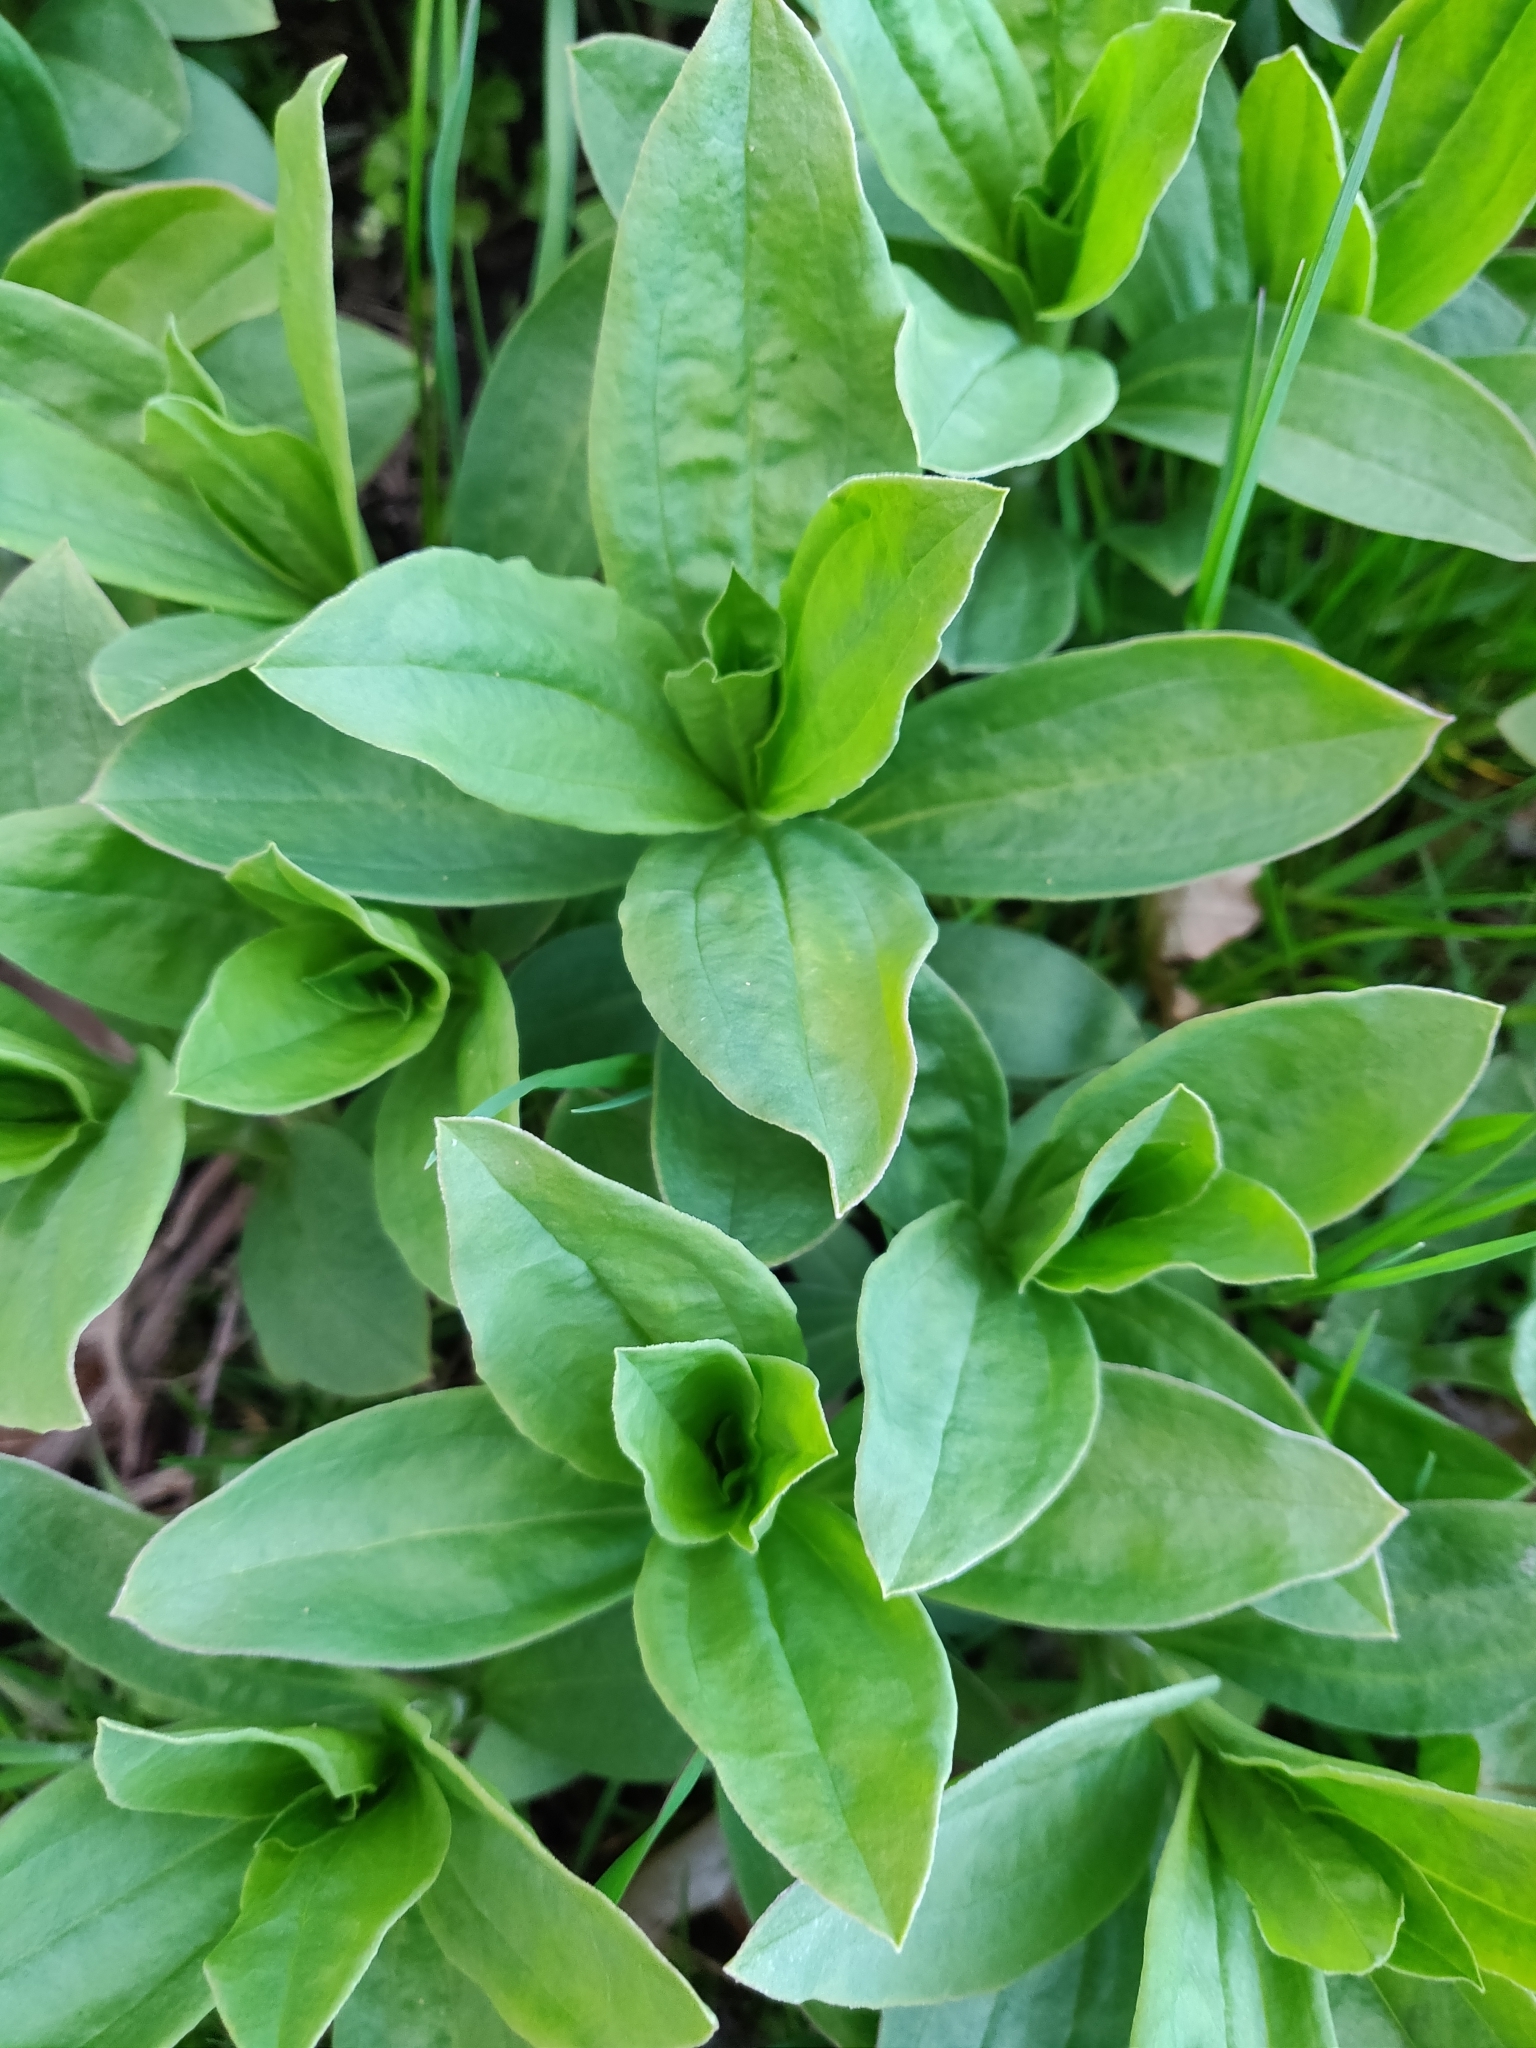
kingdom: Plantae
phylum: Tracheophyta
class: Magnoliopsida
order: Caryophyllales
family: Caryophyllaceae
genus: Saponaria
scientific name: Saponaria officinalis
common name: Soapwort
